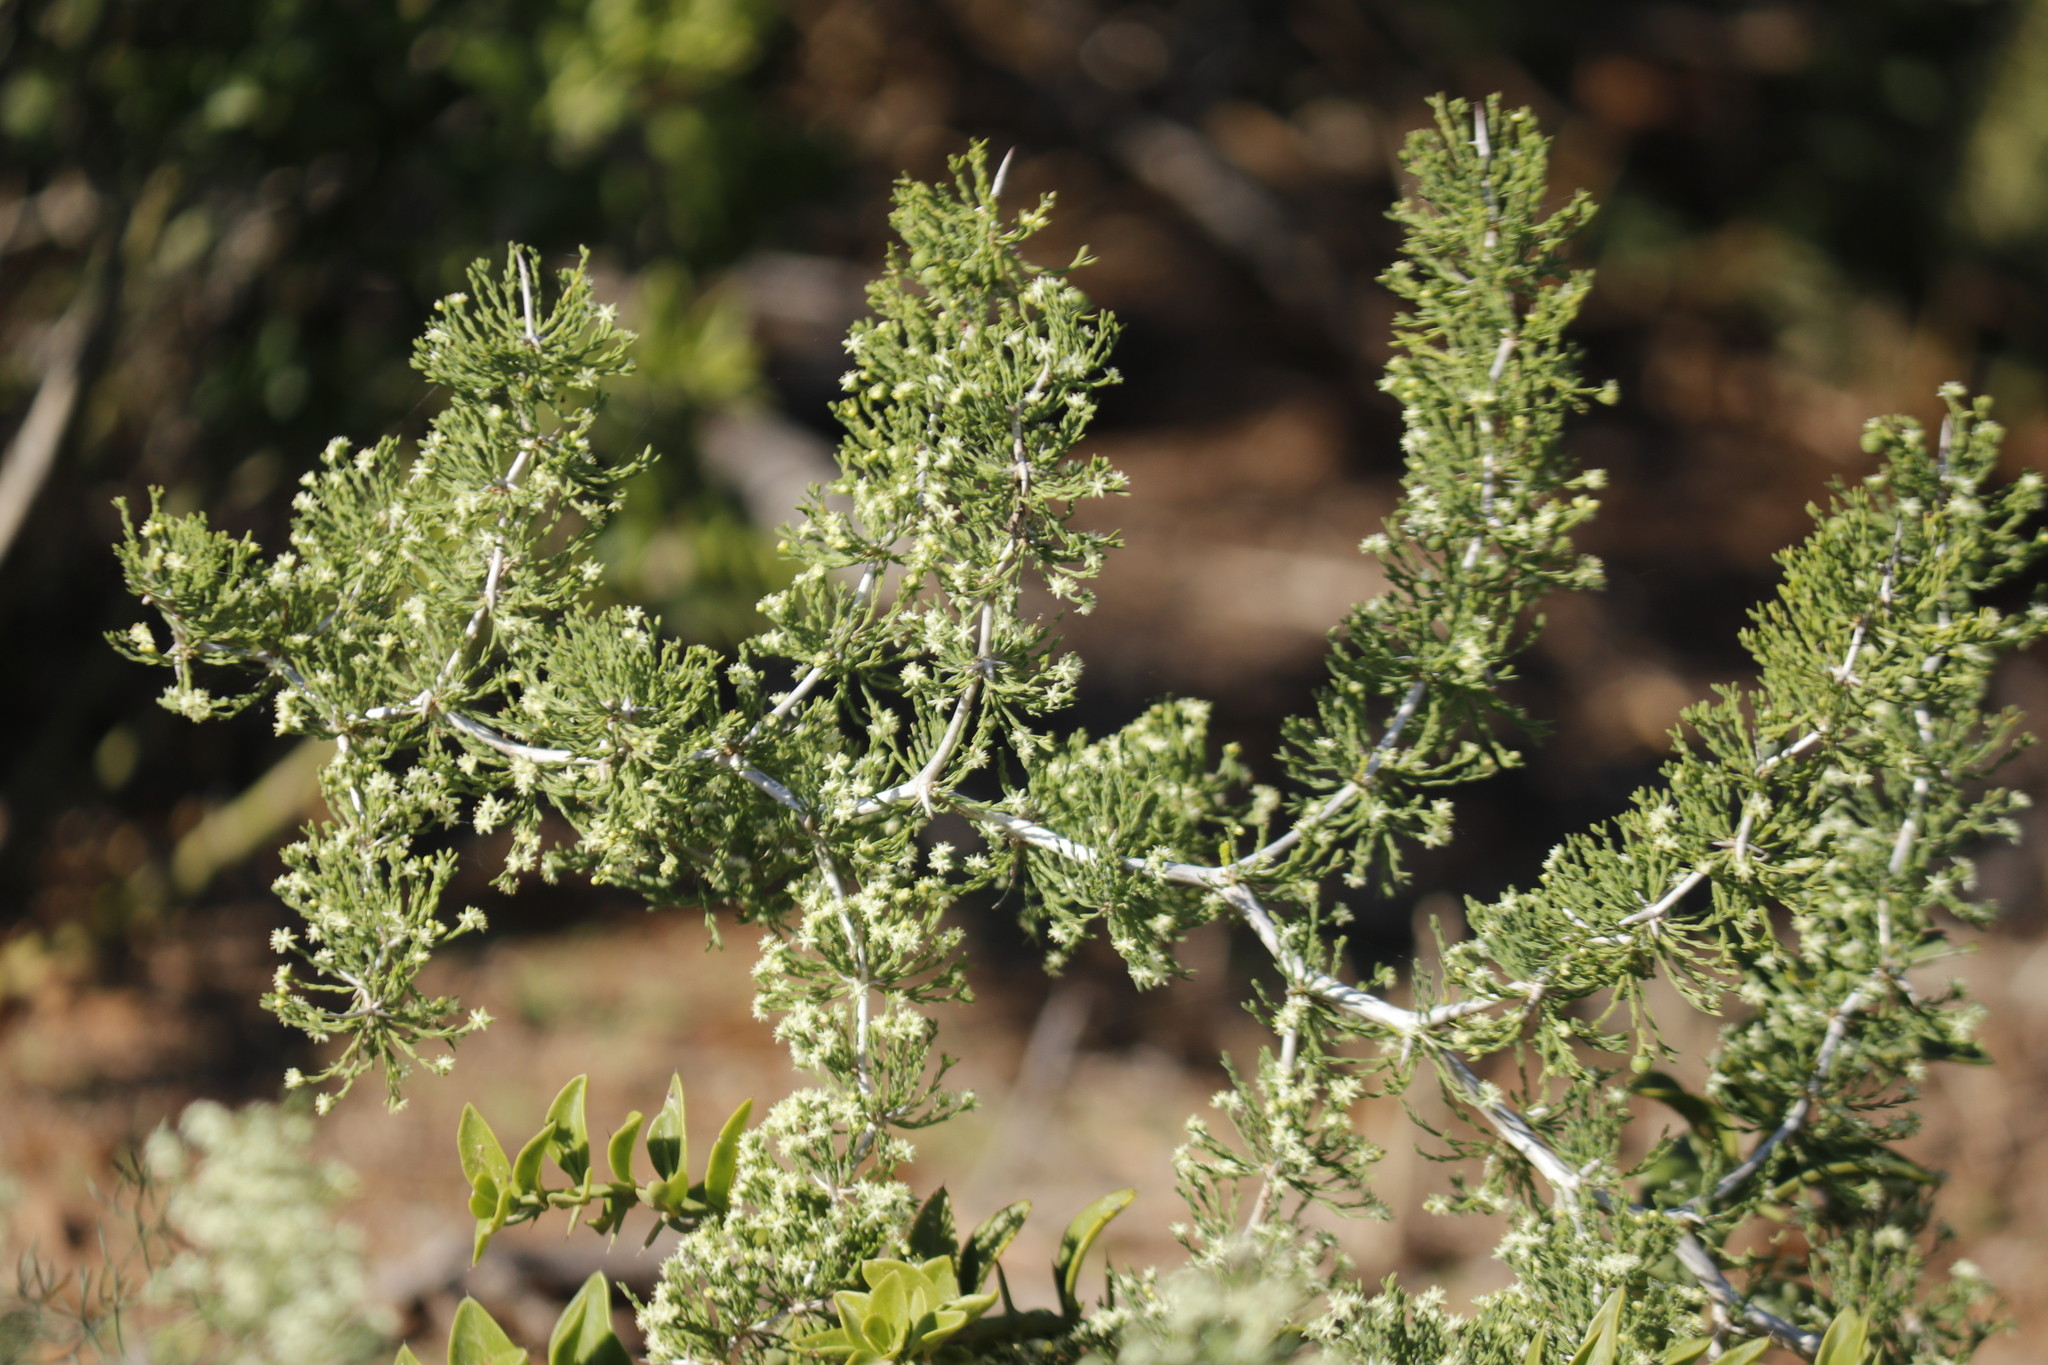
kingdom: Plantae
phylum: Tracheophyta
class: Liliopsida
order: Asparagales
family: Asparagaceae
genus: Asparagus
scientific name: Asparagus burchellii
